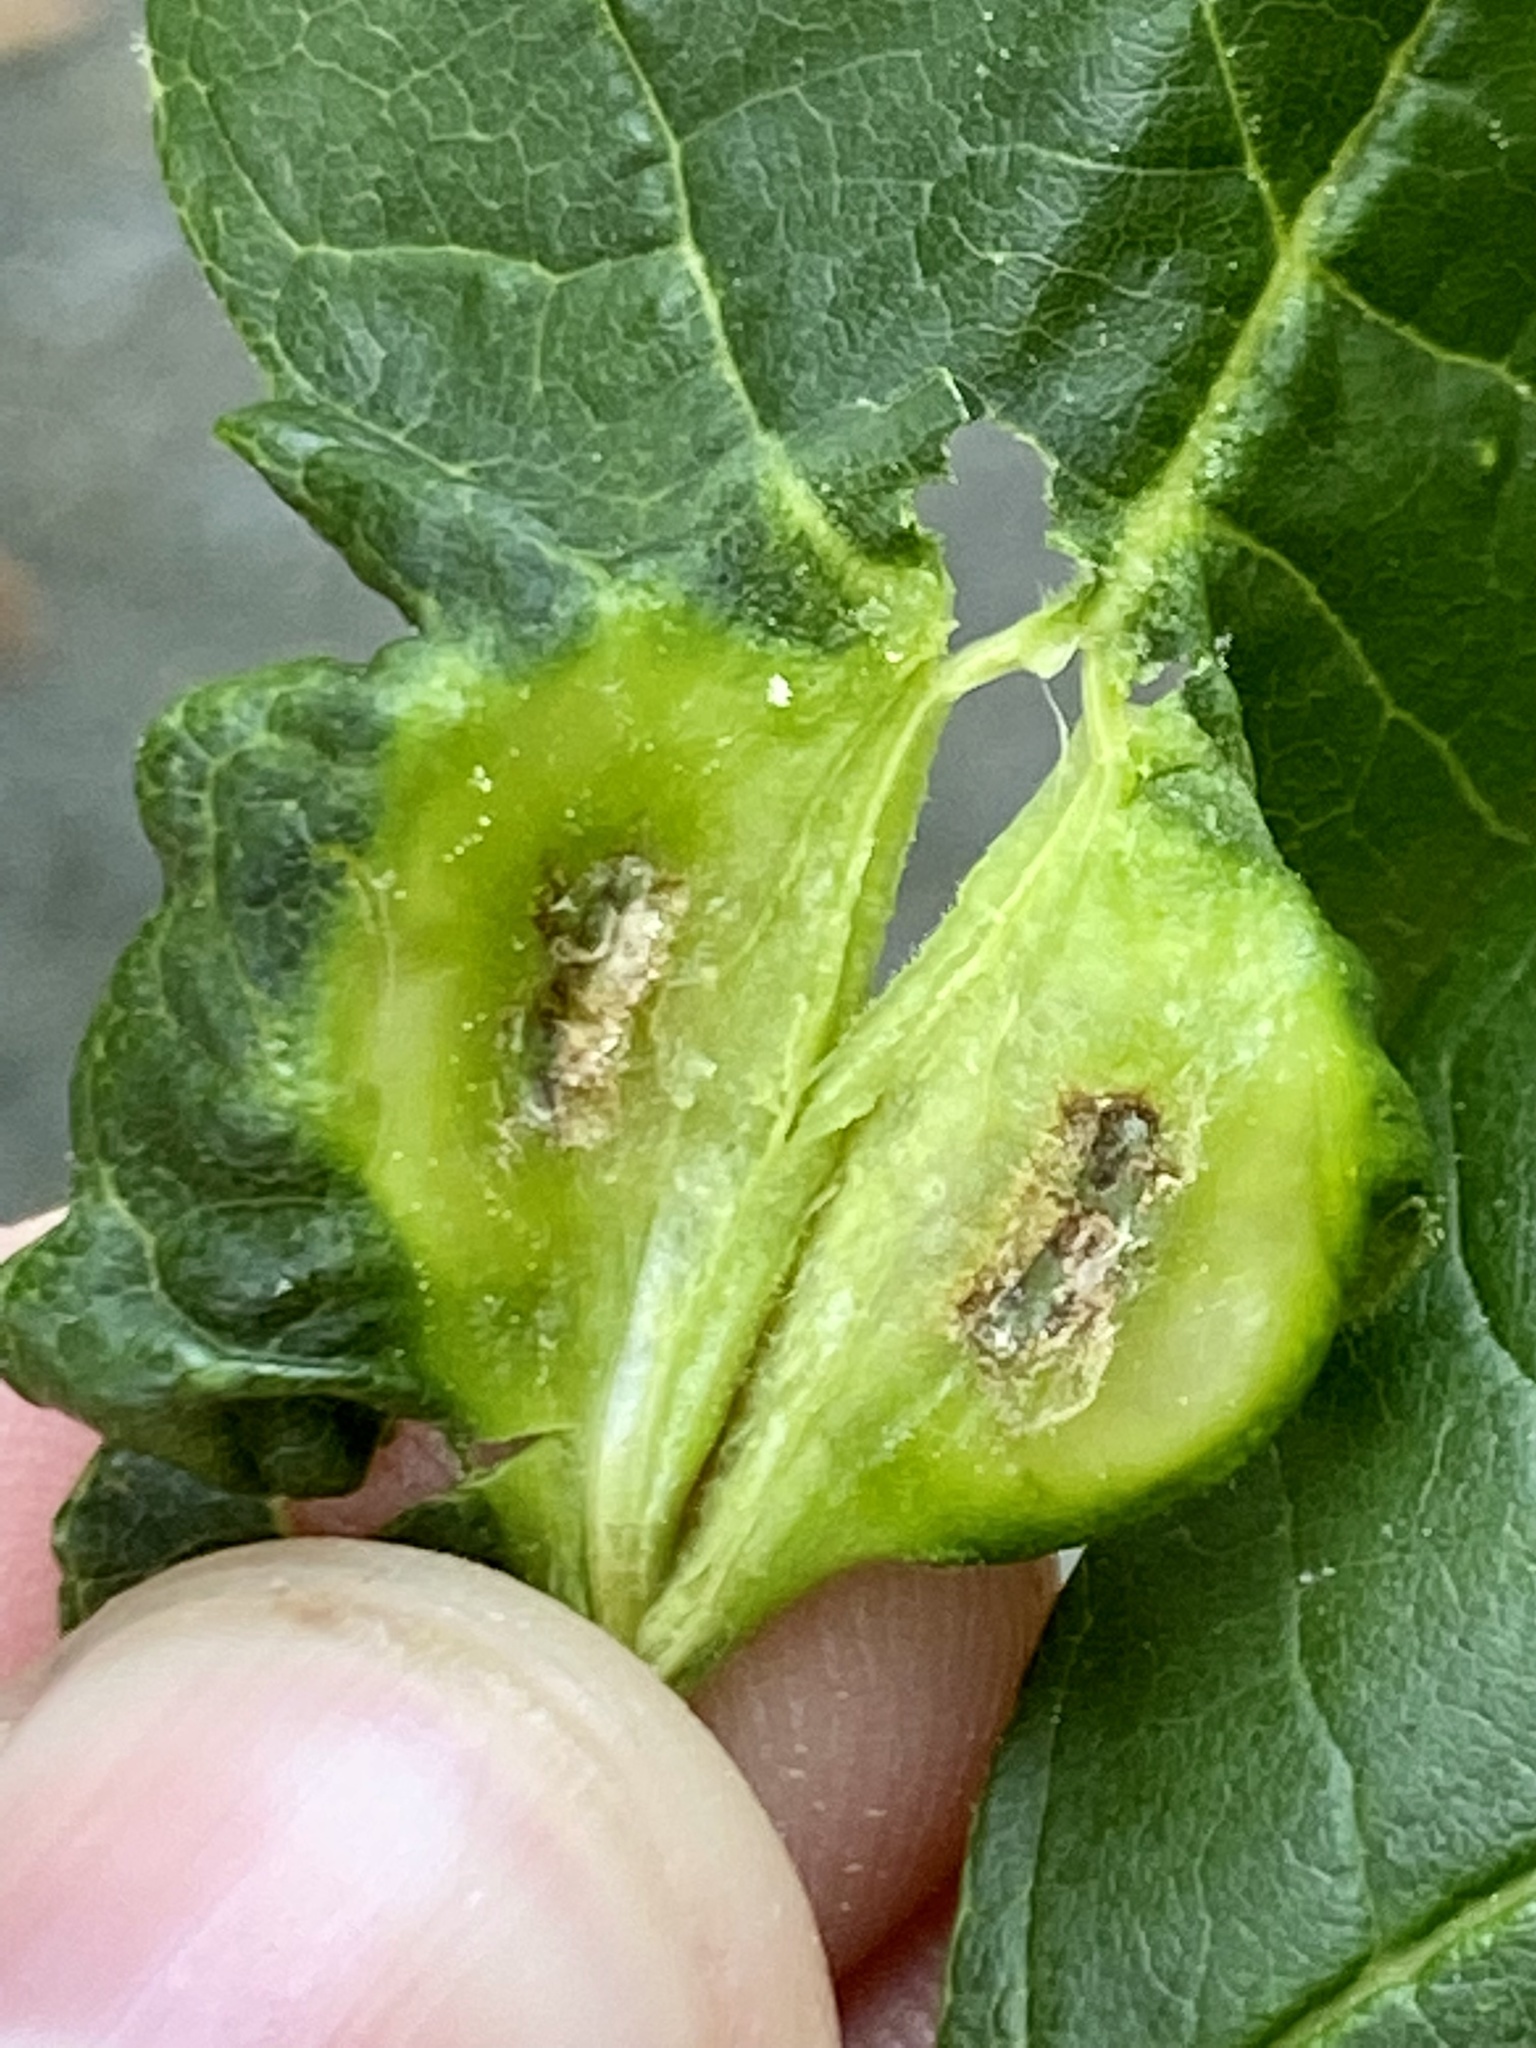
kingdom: Animalia
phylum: Arthropoda
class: Insecta
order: Diptera
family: Cecidomyiidae
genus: Dasineura
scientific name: Dasineura tumidosae
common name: Ash petiole gall midge
